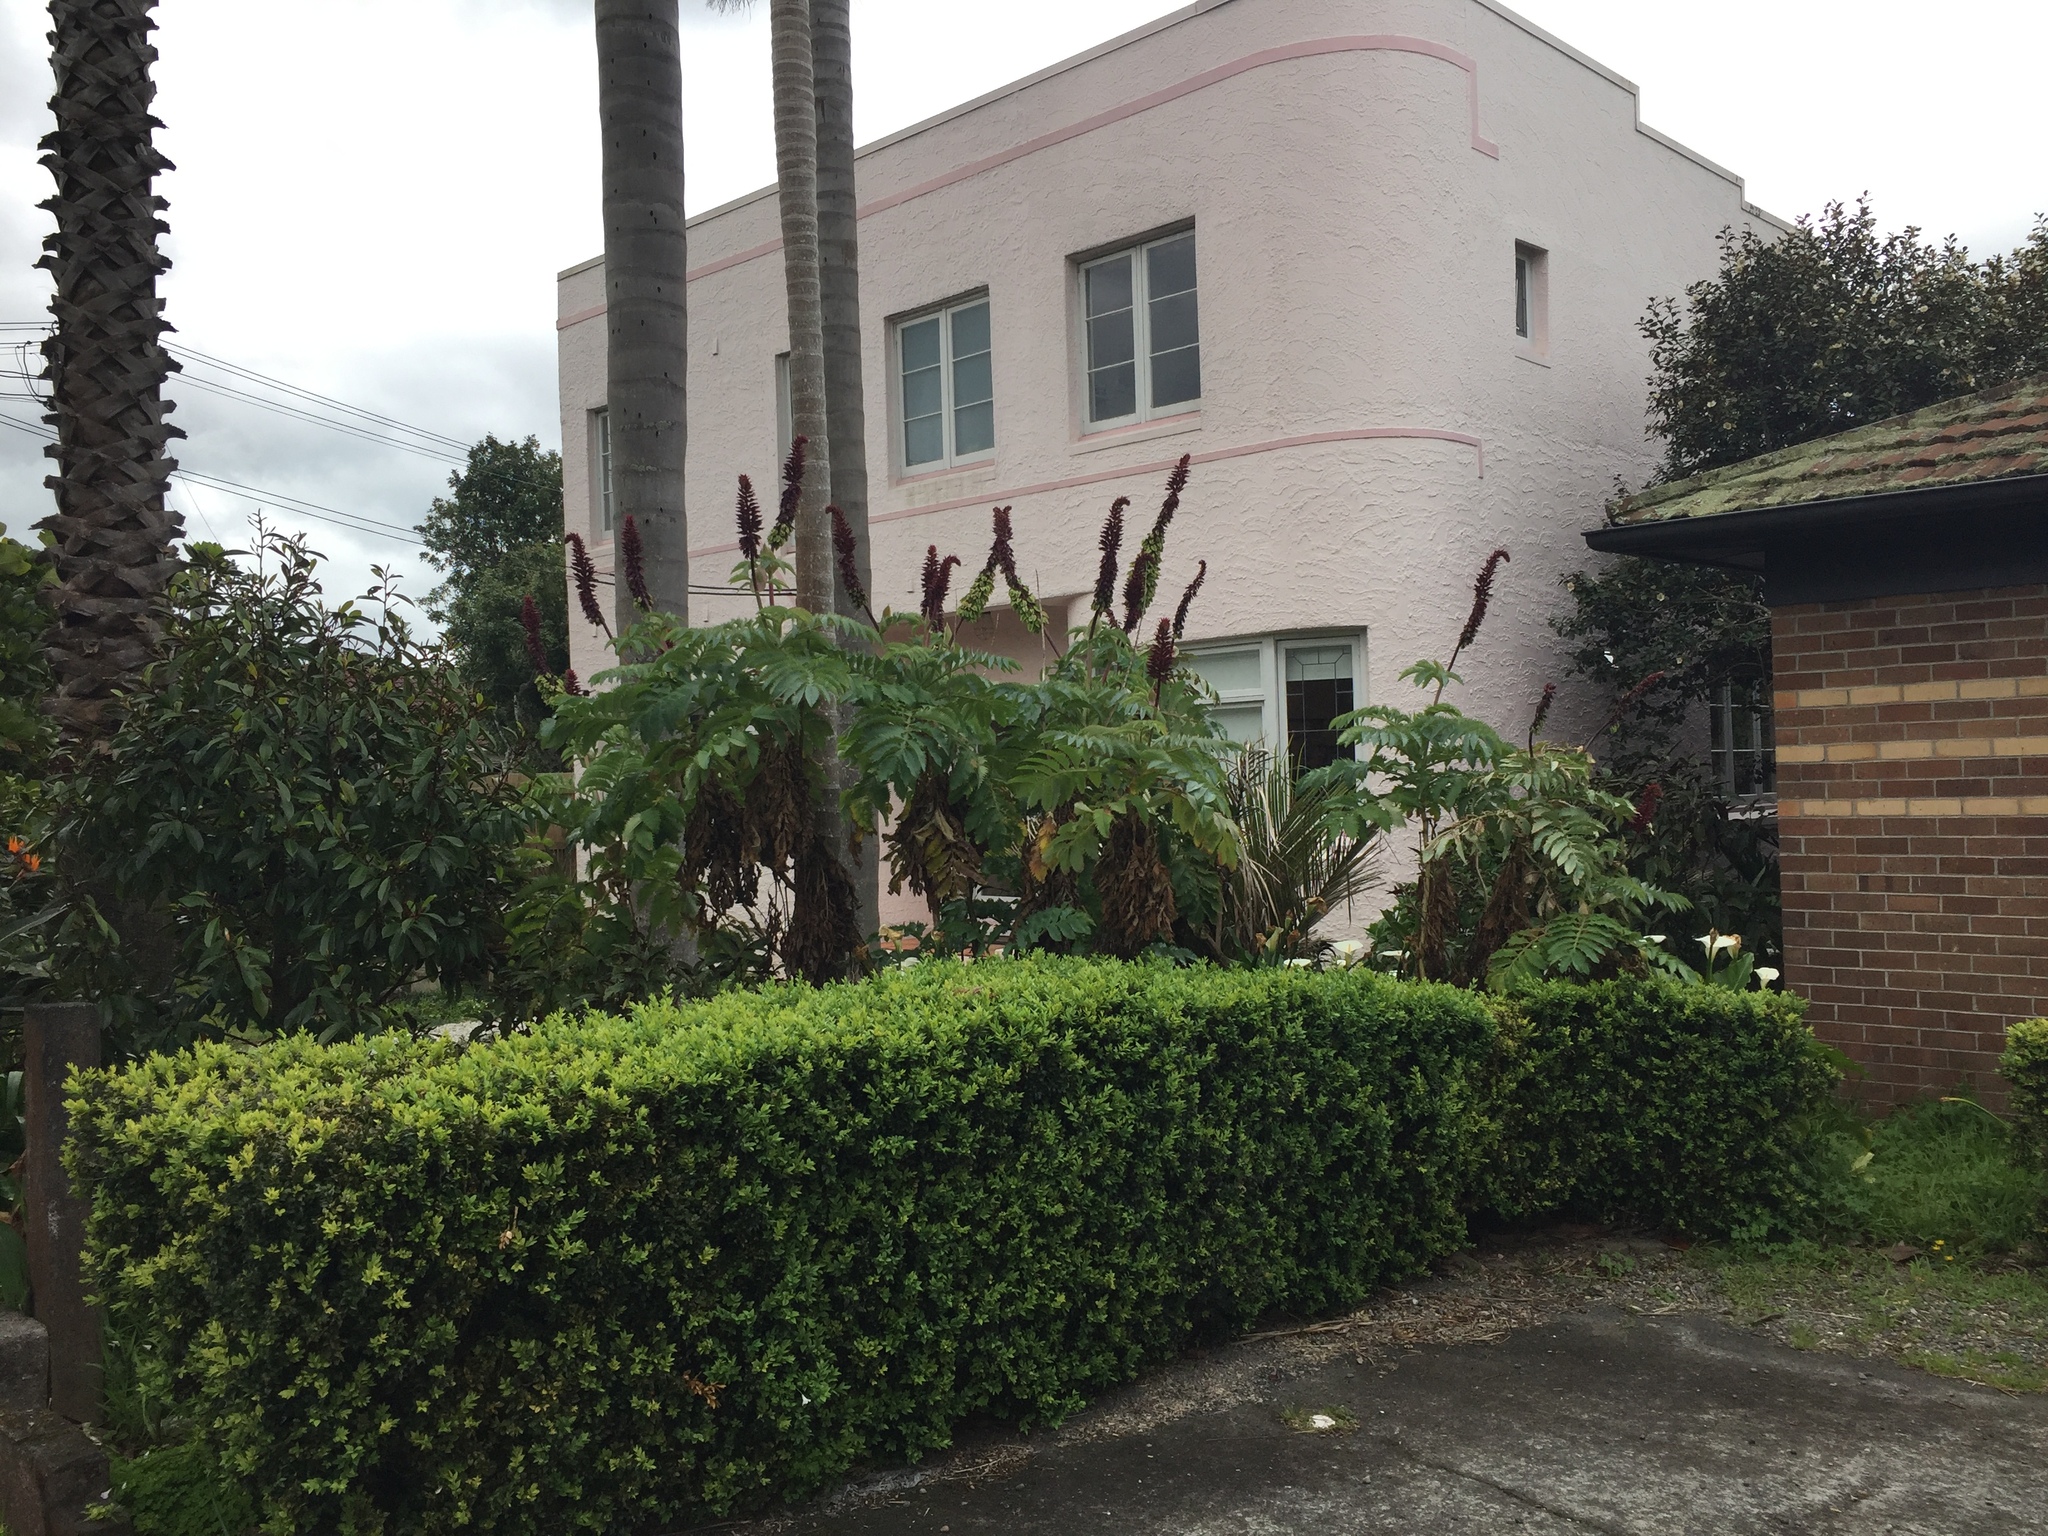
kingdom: Plantae
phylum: Tracheophyta
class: Magnoliopsida
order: Geraniales
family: Melianthaceae
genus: Melianthus
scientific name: Melianthus major
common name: Honey-flower
